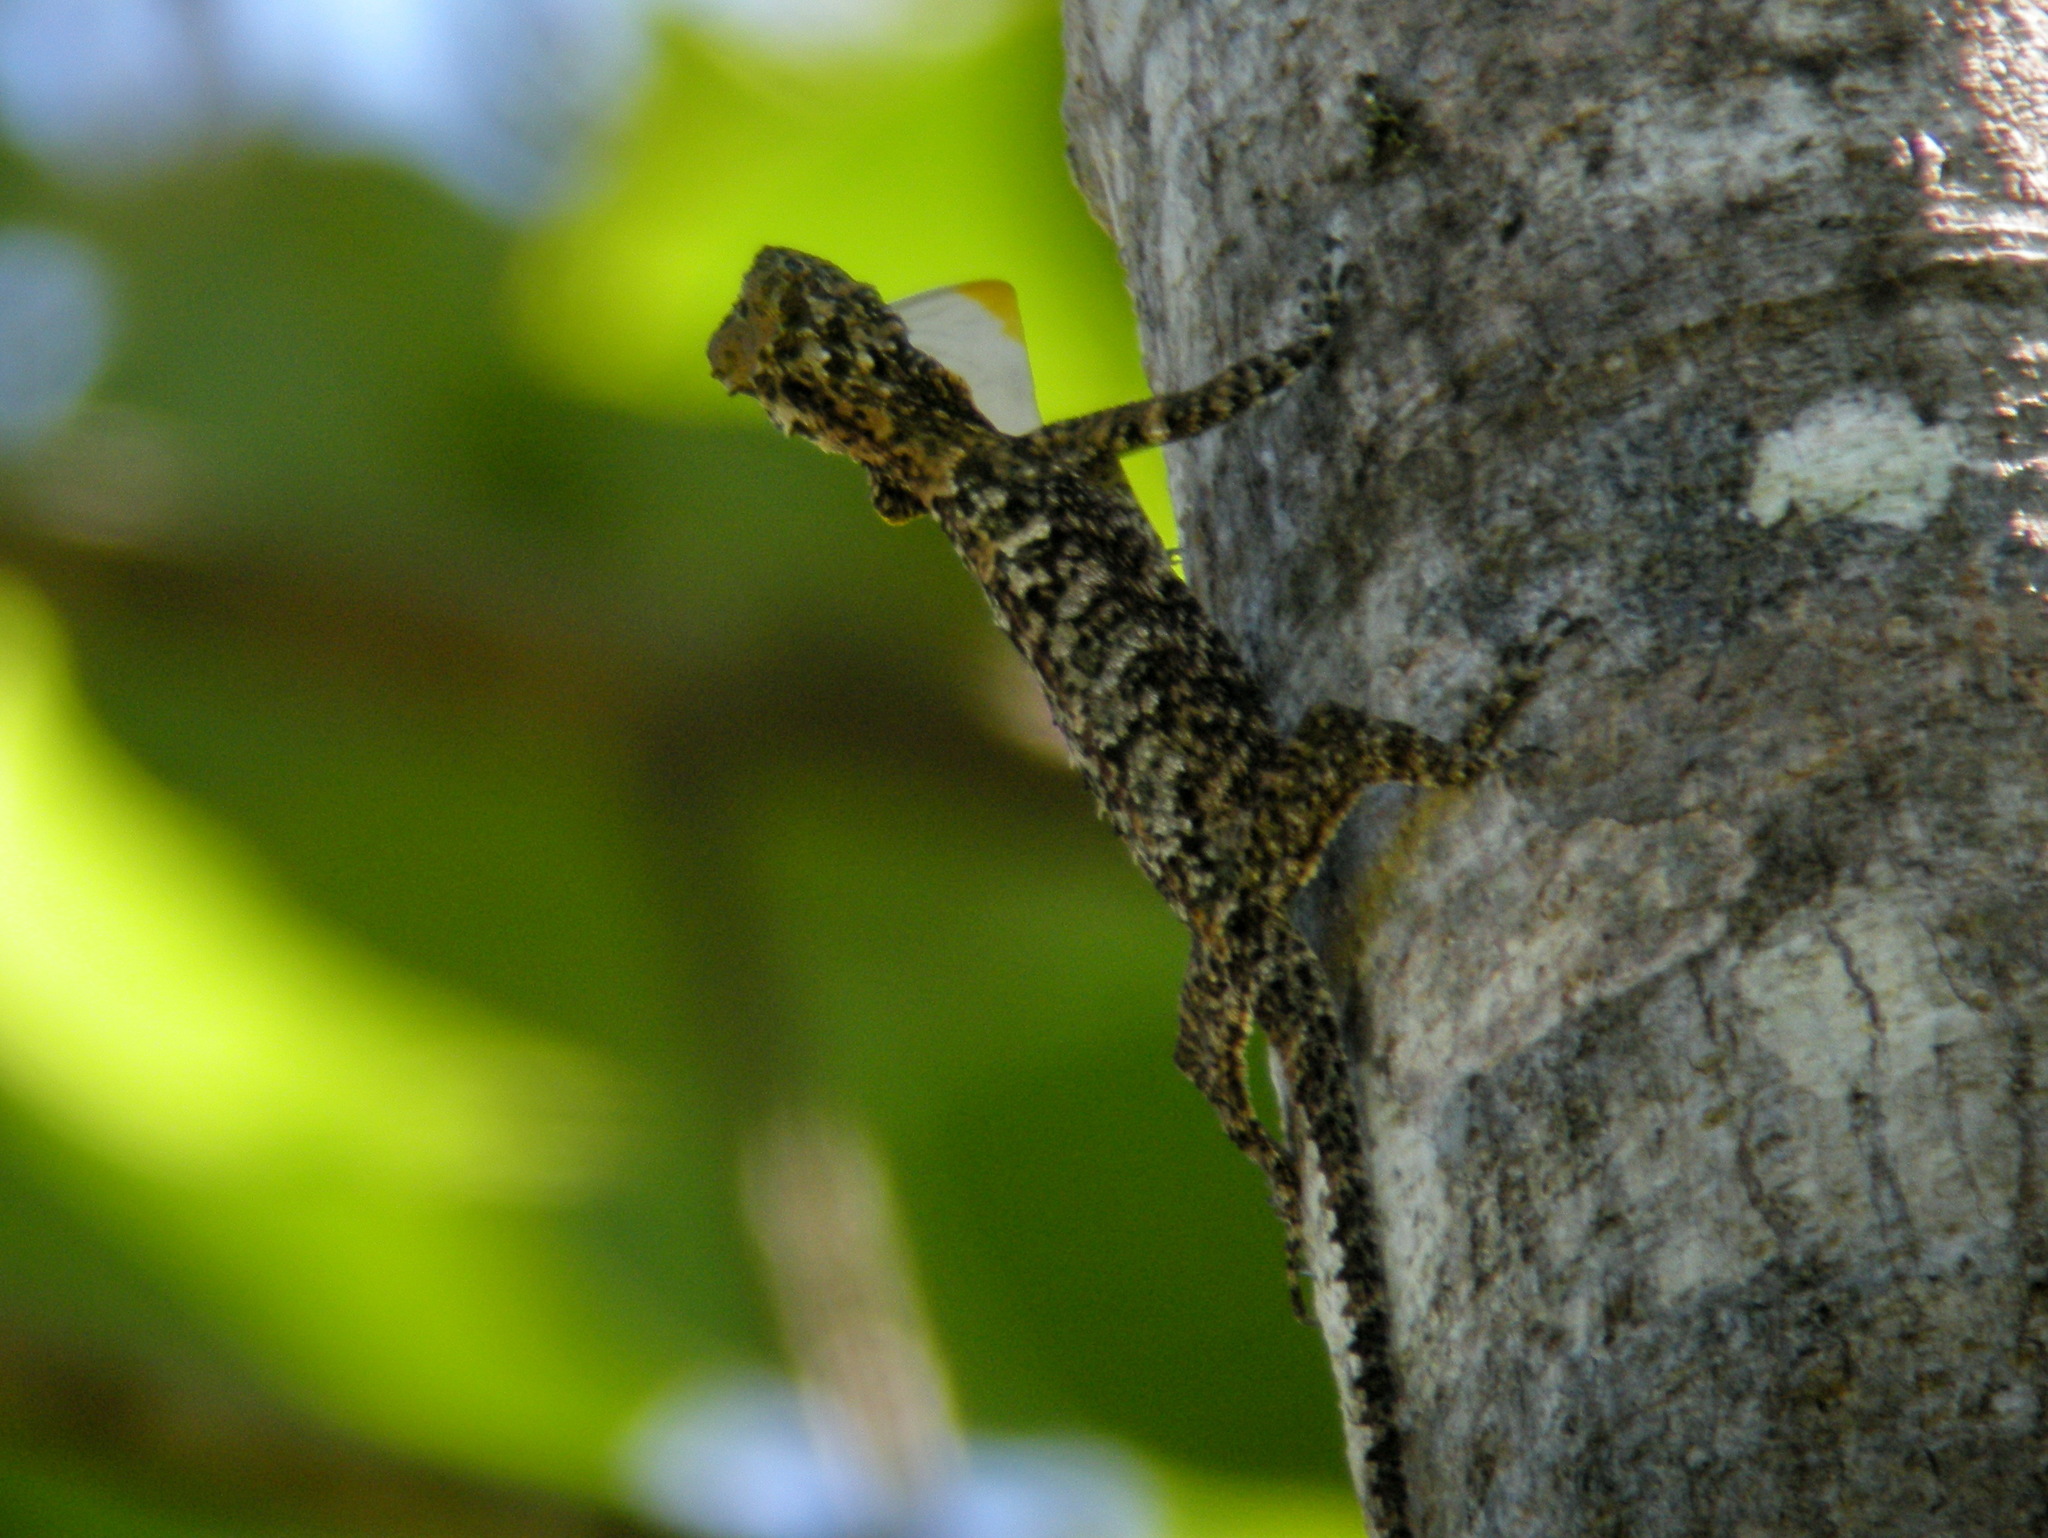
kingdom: Animalia
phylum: Chordata
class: Squamata
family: Agamidae
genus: Draco
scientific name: Draco fimbriatus
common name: Fringed flying dragon
